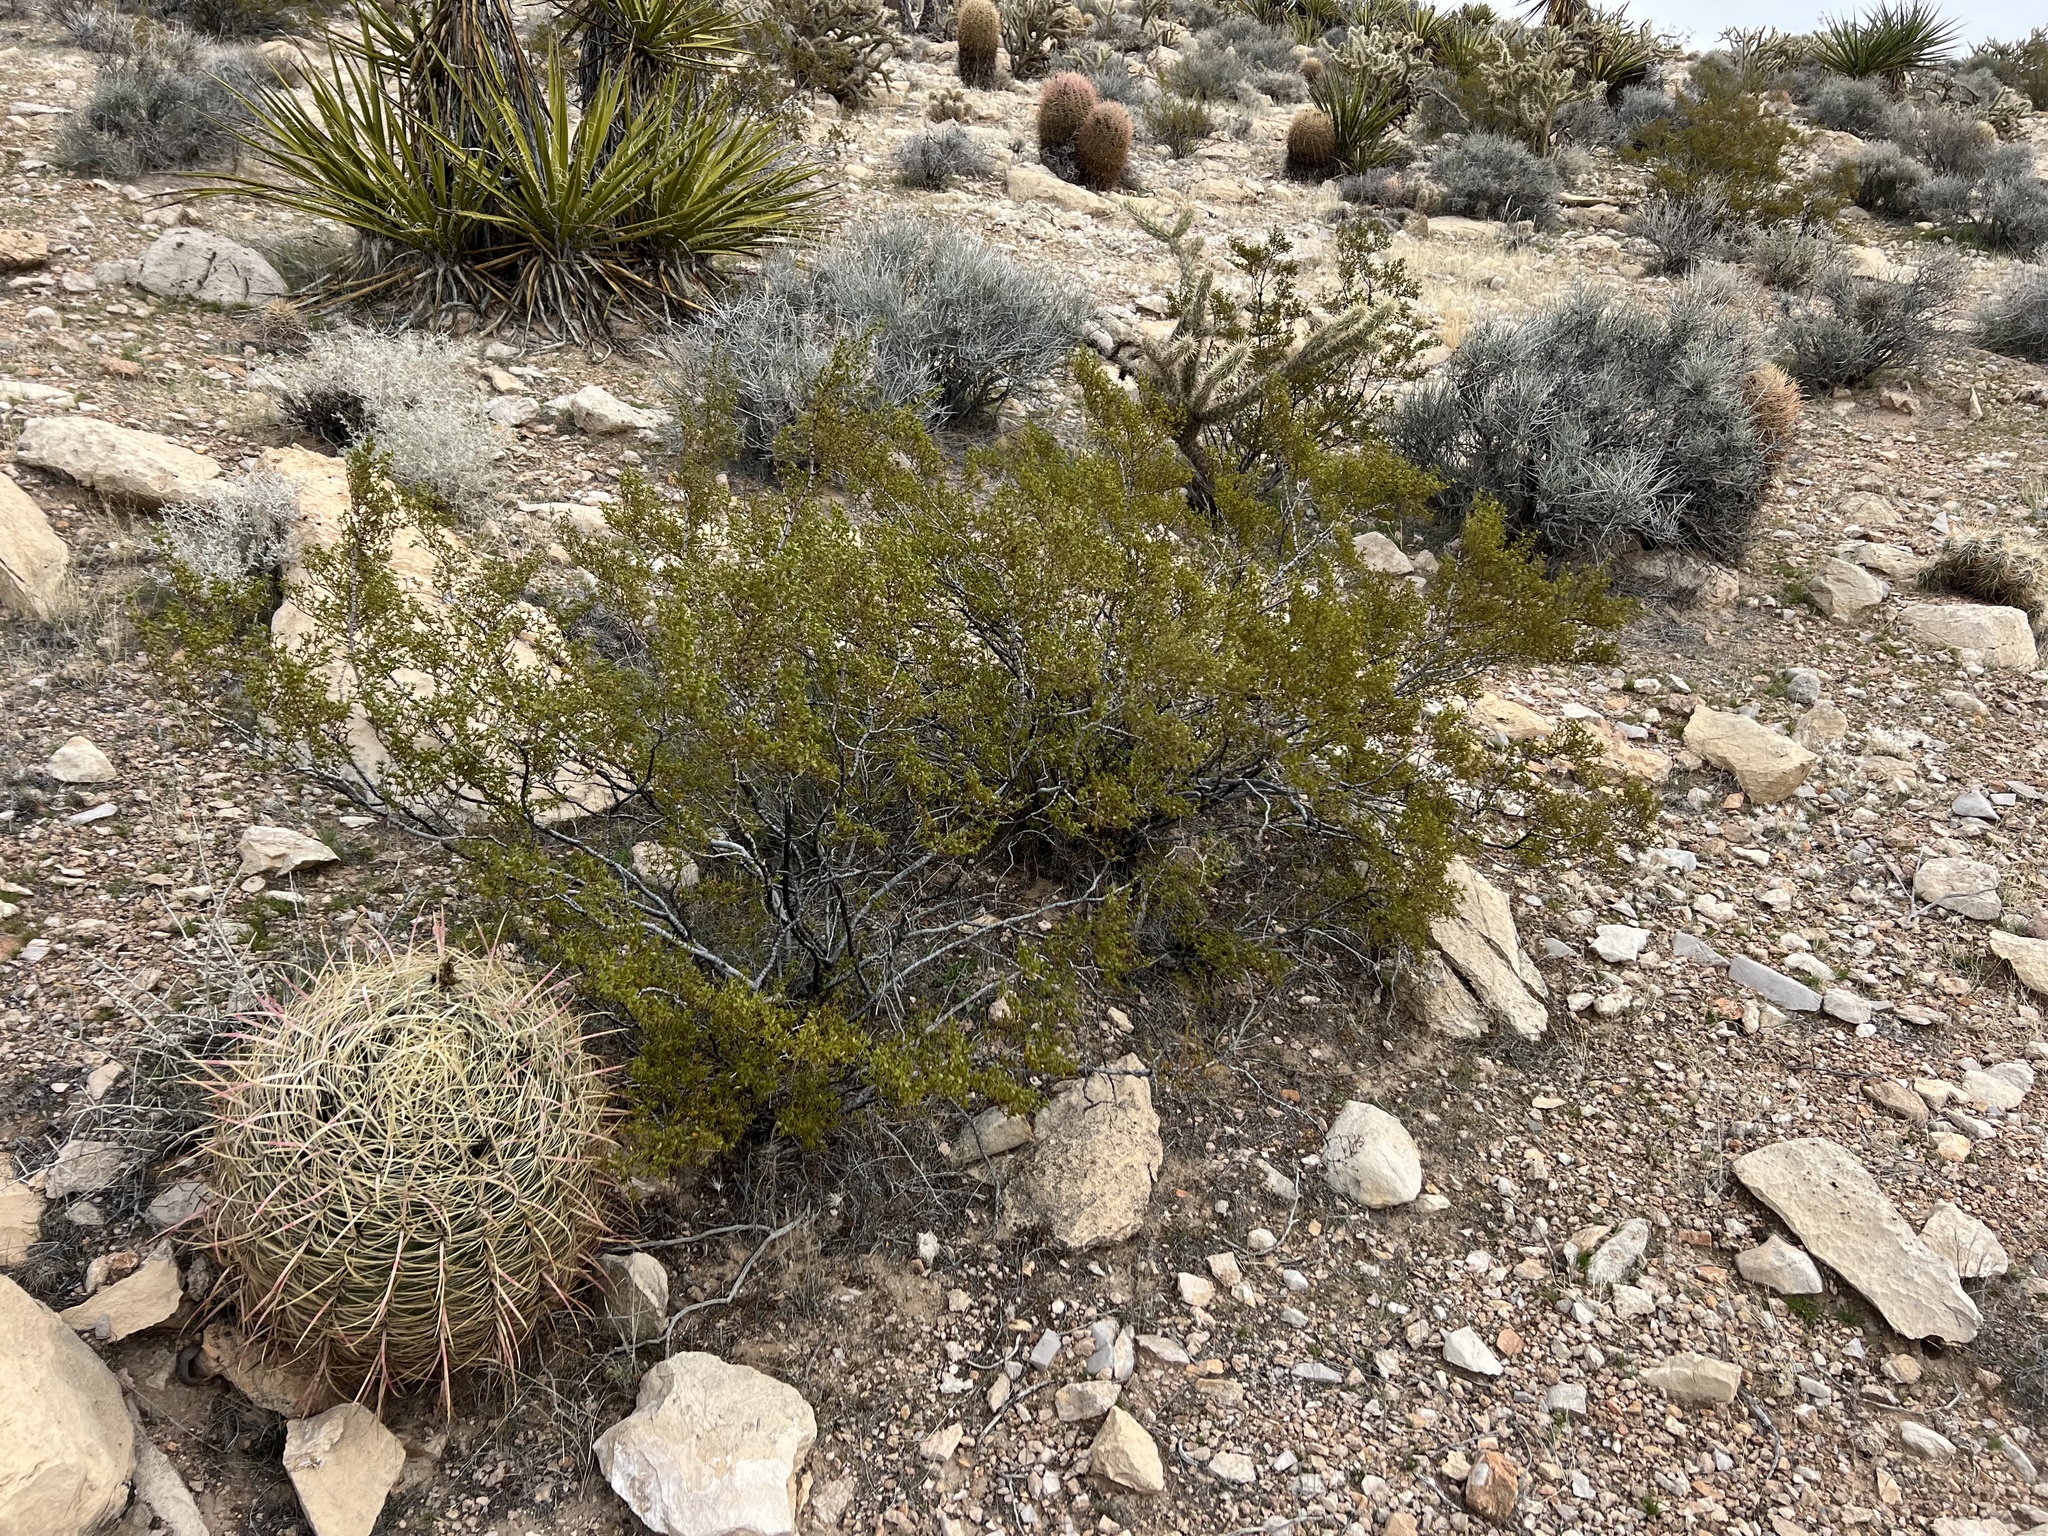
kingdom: Plantae
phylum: Tracheophyta
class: Magnoliopsida
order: Zygophyllales
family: Zygophyllaceae
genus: Larrea
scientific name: Larrea tridentata
